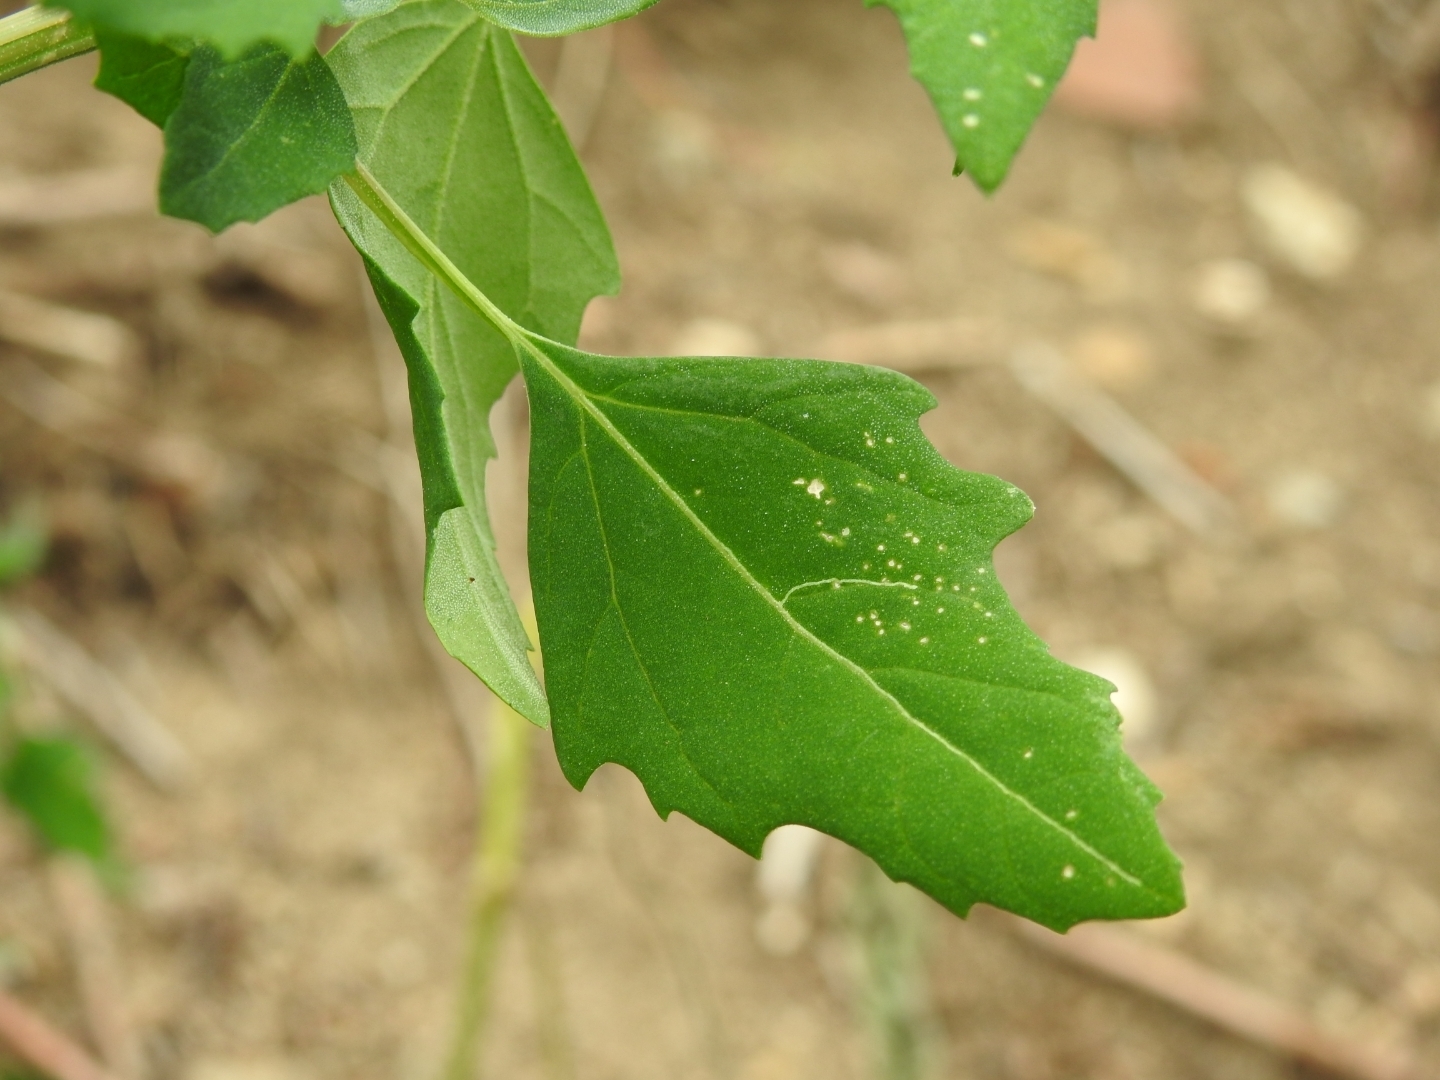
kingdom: Plantae
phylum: Tracheophyta
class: Magnoliopsida
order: Caryophyllales
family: Amaranthaceae
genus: Chenopodium
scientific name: Chenopodium album
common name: Fat-hen
